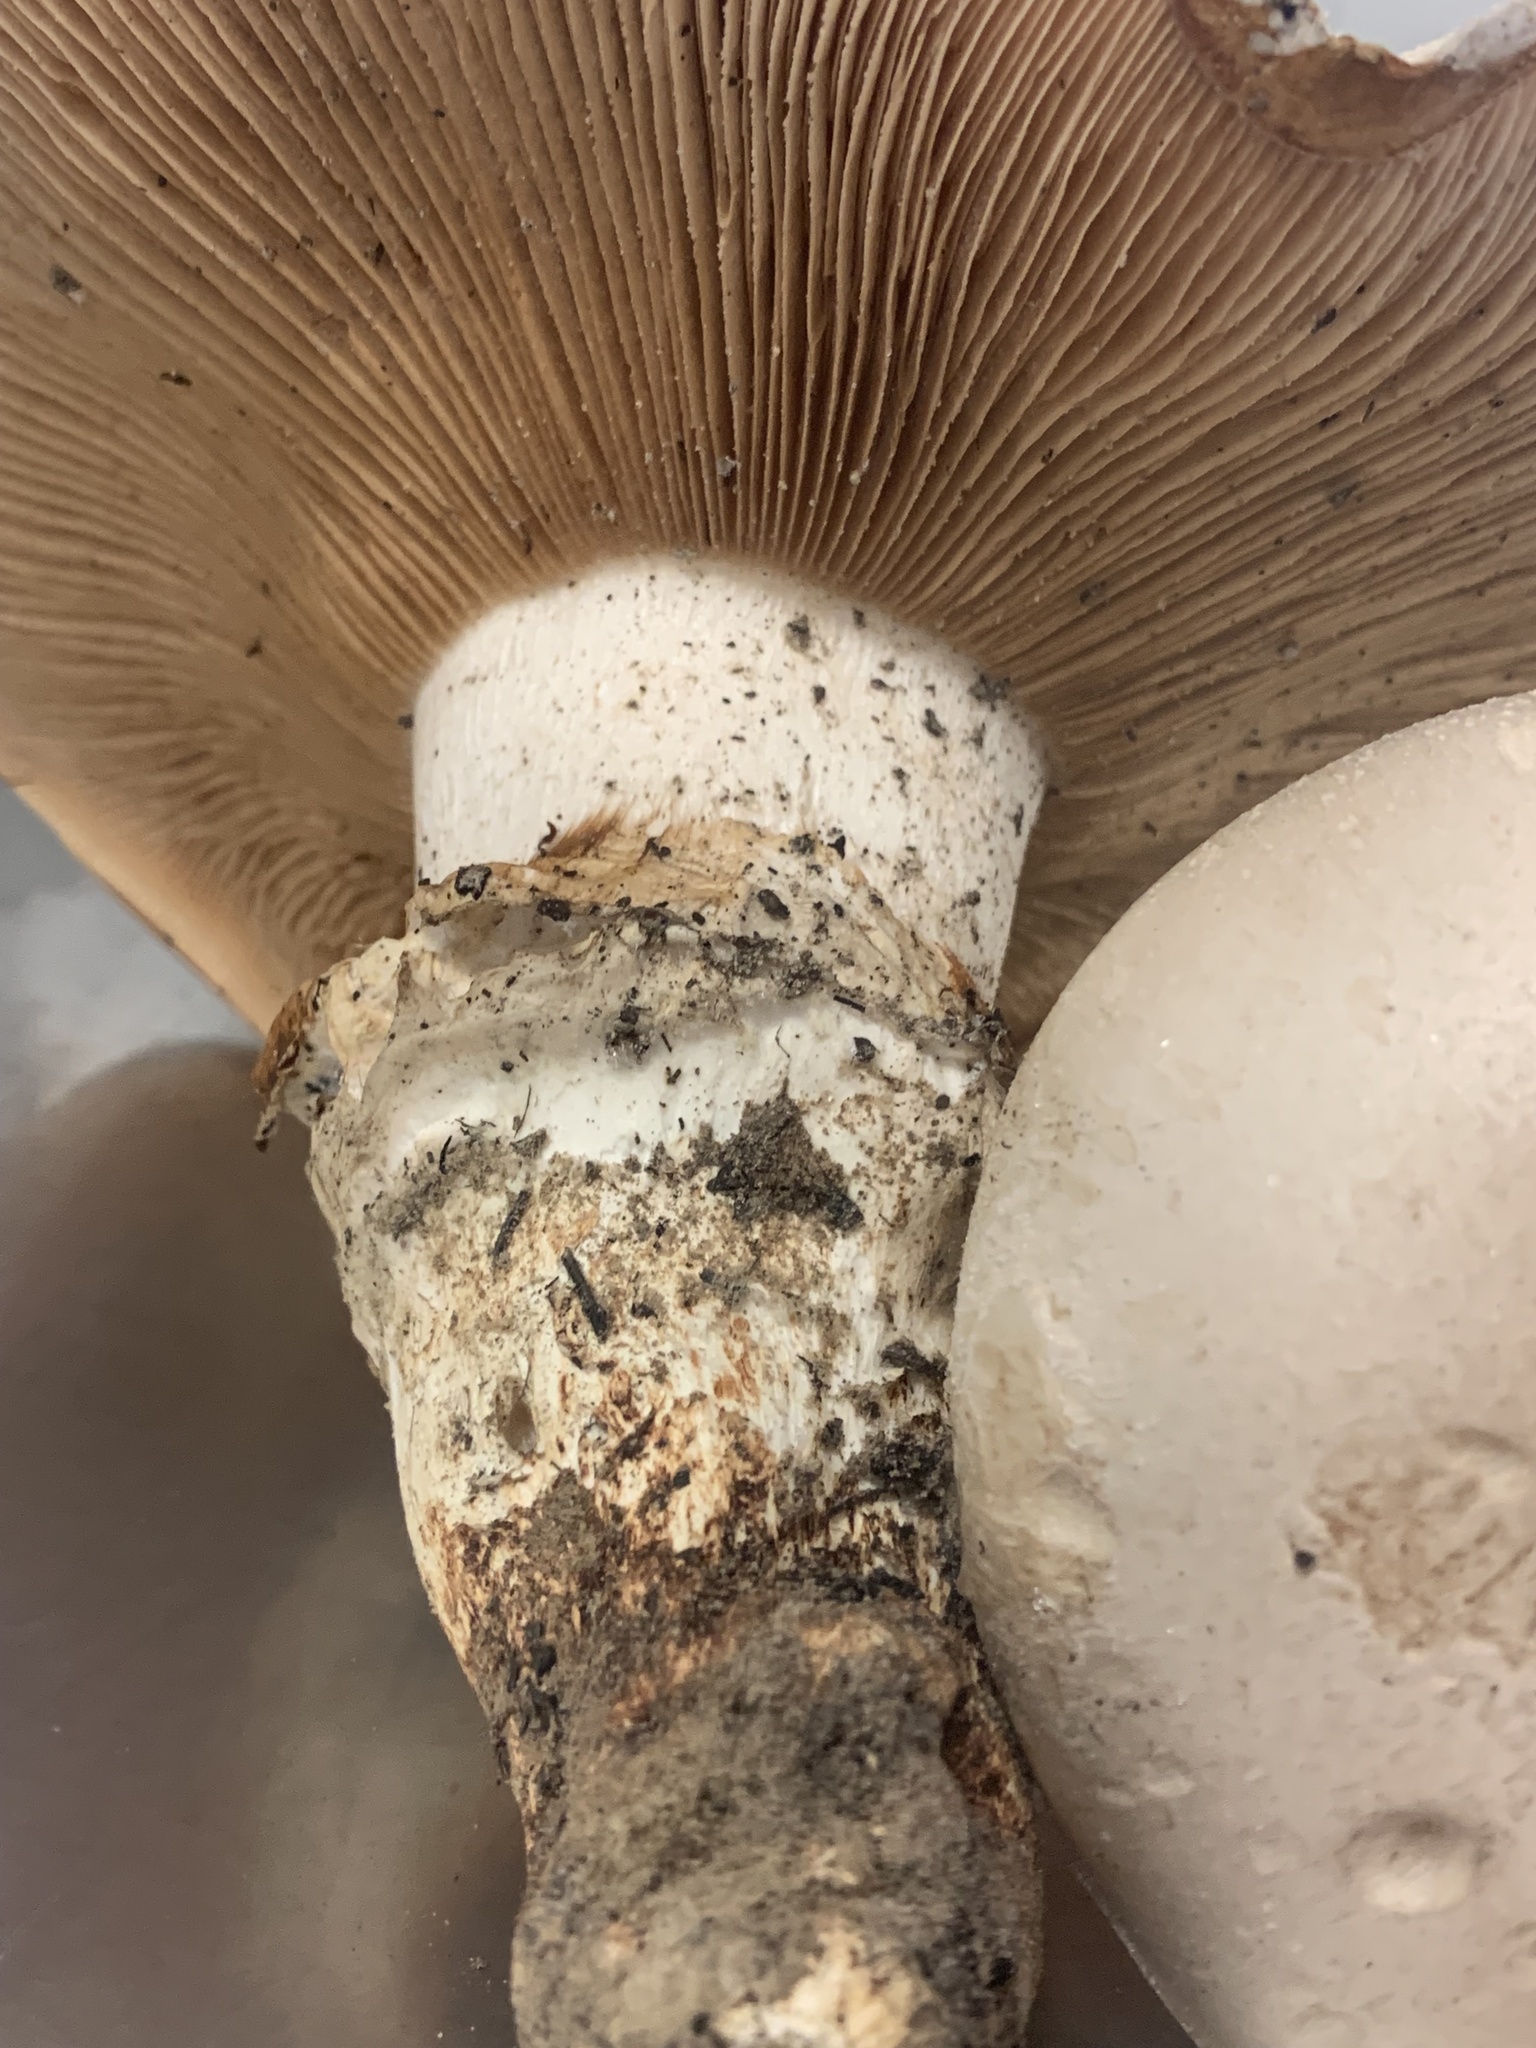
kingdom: Fungi
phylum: Basidiomycota
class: Agaricomycetes
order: Agaricales
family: Cortinariaceae
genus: Austrocortinarius
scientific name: Austrocortinarius australiensis
